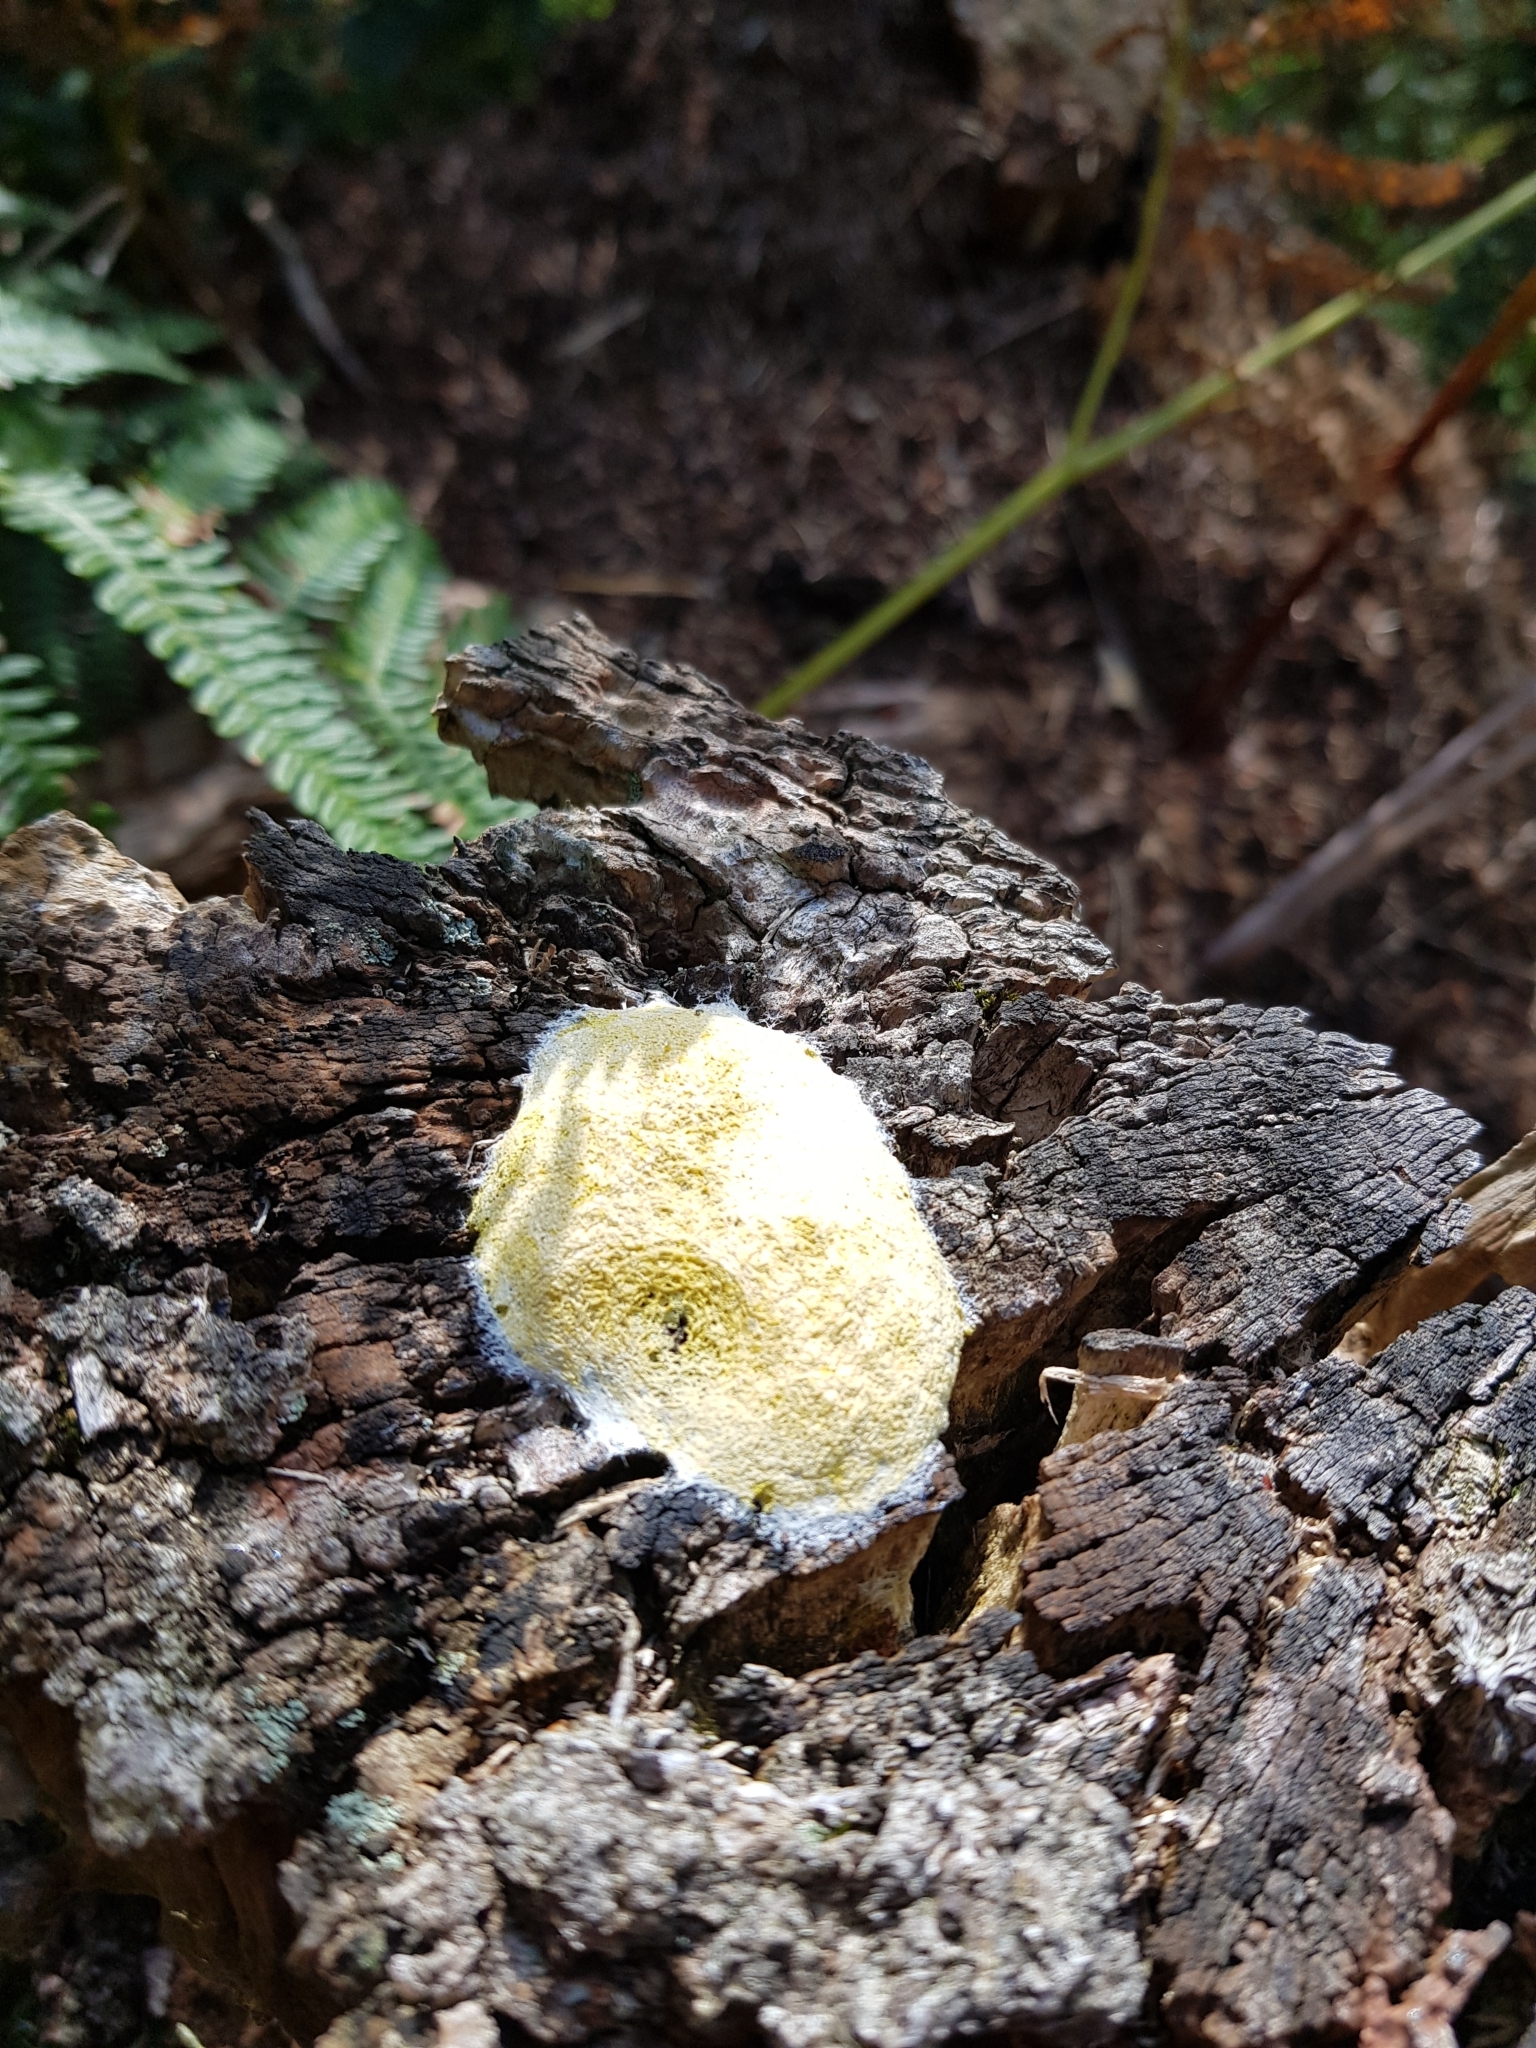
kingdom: Protozoa
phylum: Mycetozoa
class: Myxomycetes
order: Physarales
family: Physaraceae
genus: Fuligo
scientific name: Fuligo septica
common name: Dog vomit slime mold
